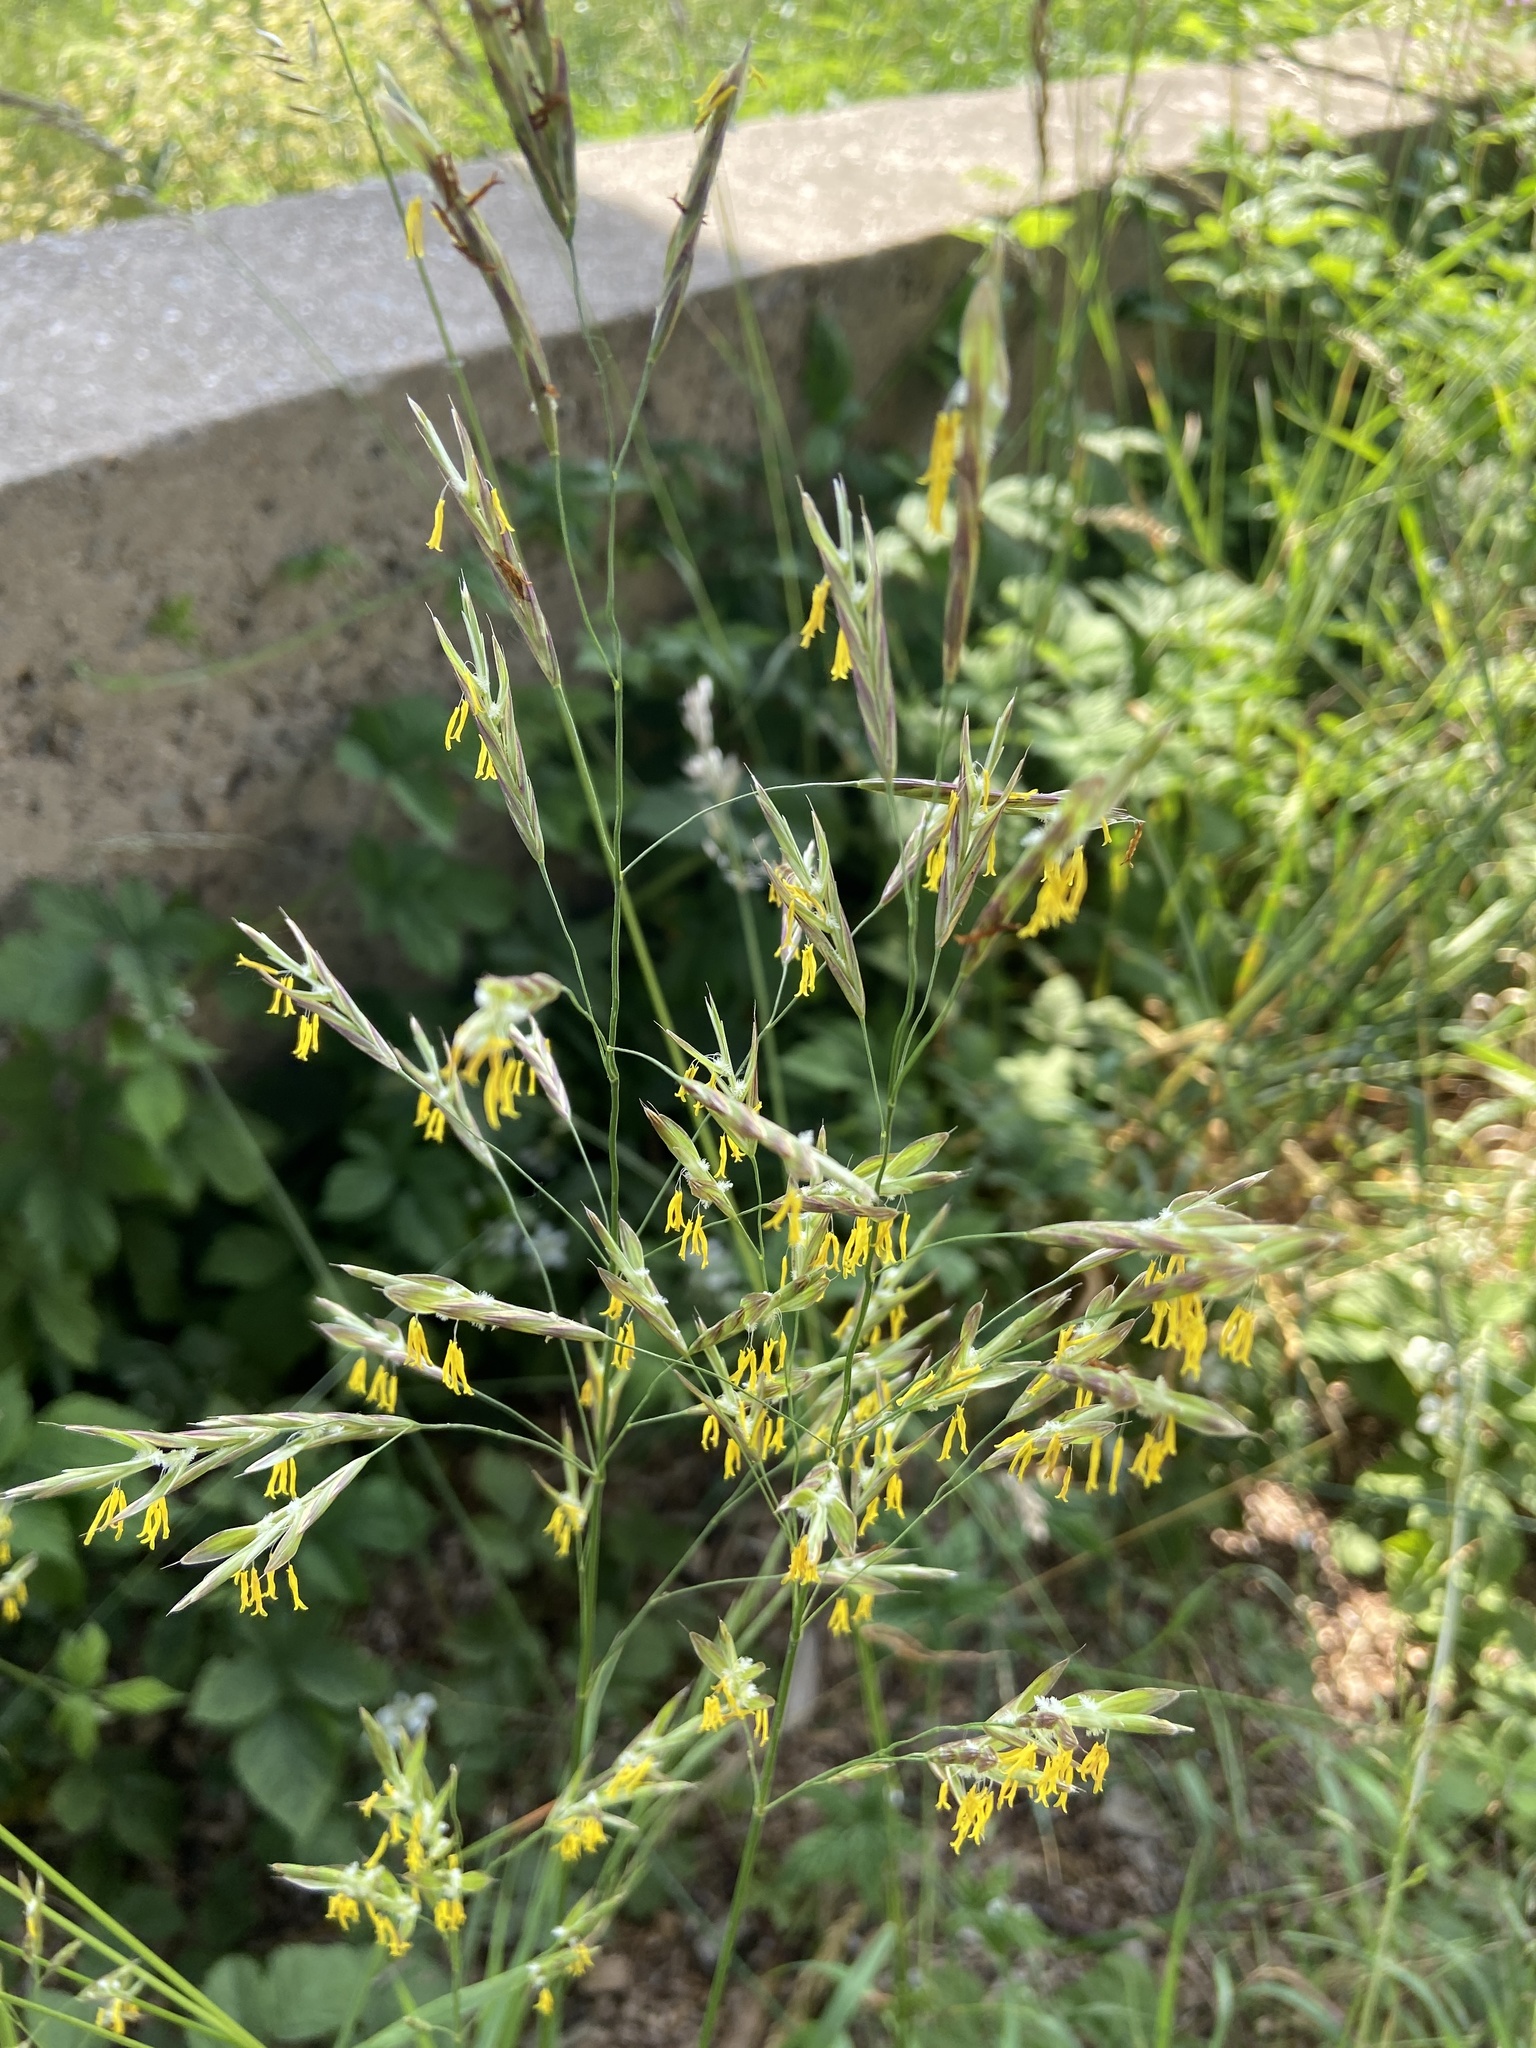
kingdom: Plantae
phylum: Tracheophyta
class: Liliopsida
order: Poales
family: Poaceae
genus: Bromus
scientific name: Bromus inermis
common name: Smooth brome
